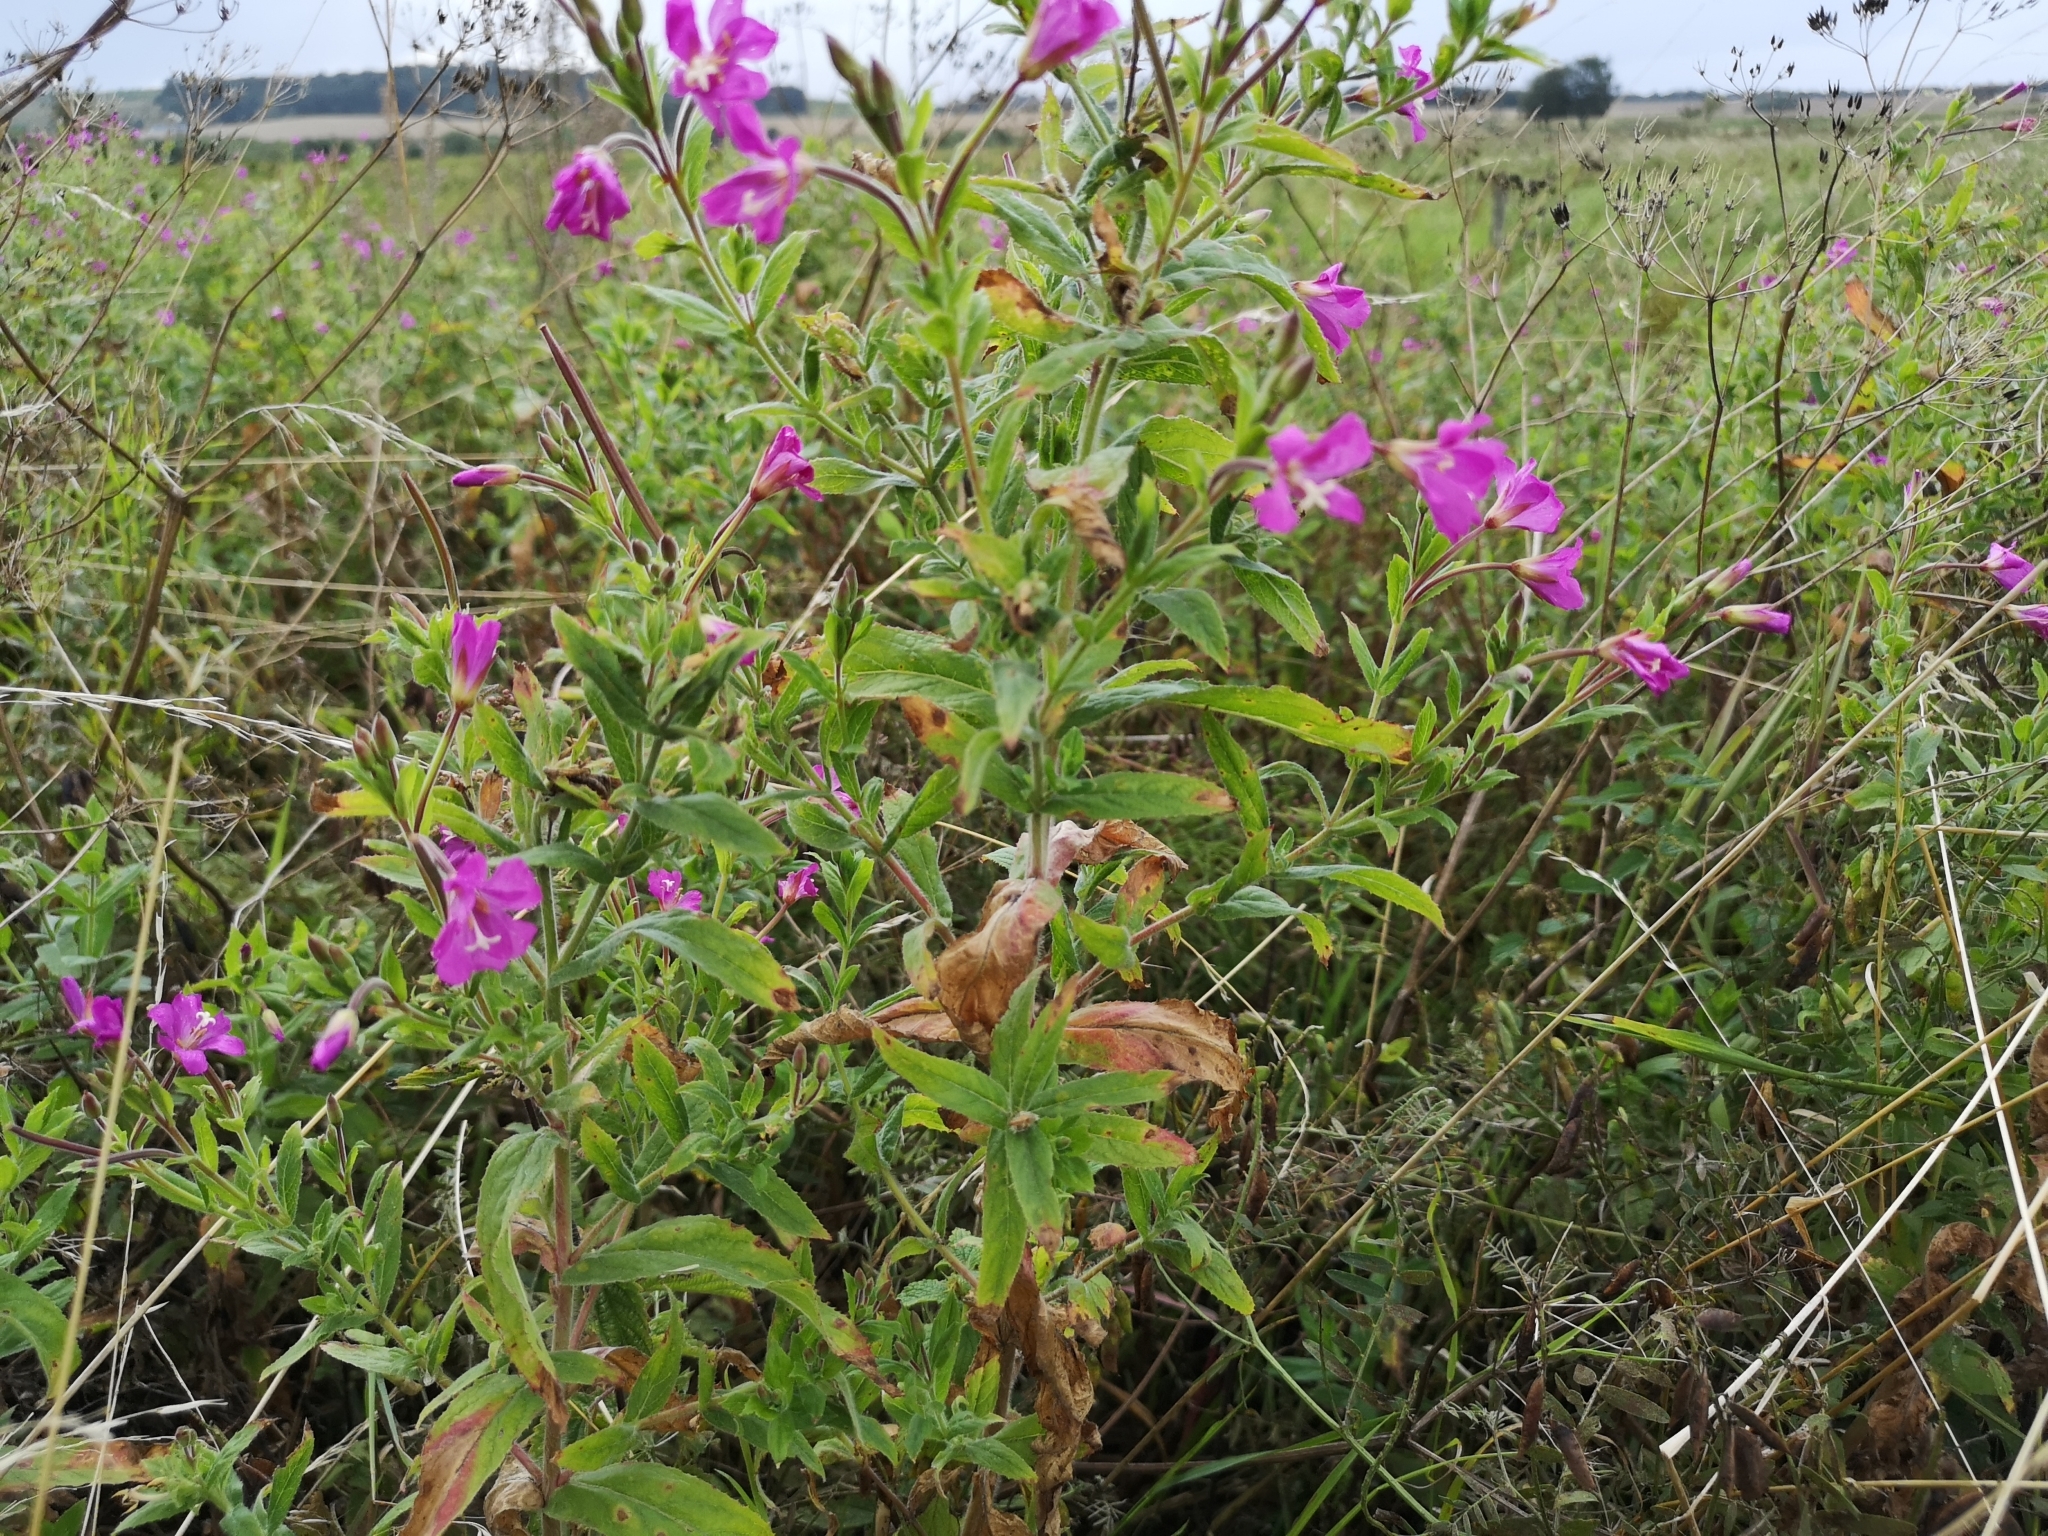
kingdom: Plantae
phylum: Tracheophyta
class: Magnoliopsida
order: Myrtales
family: Onagraceae
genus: Epilobium
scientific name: Epilobium hirsutum
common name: Great willowherb
